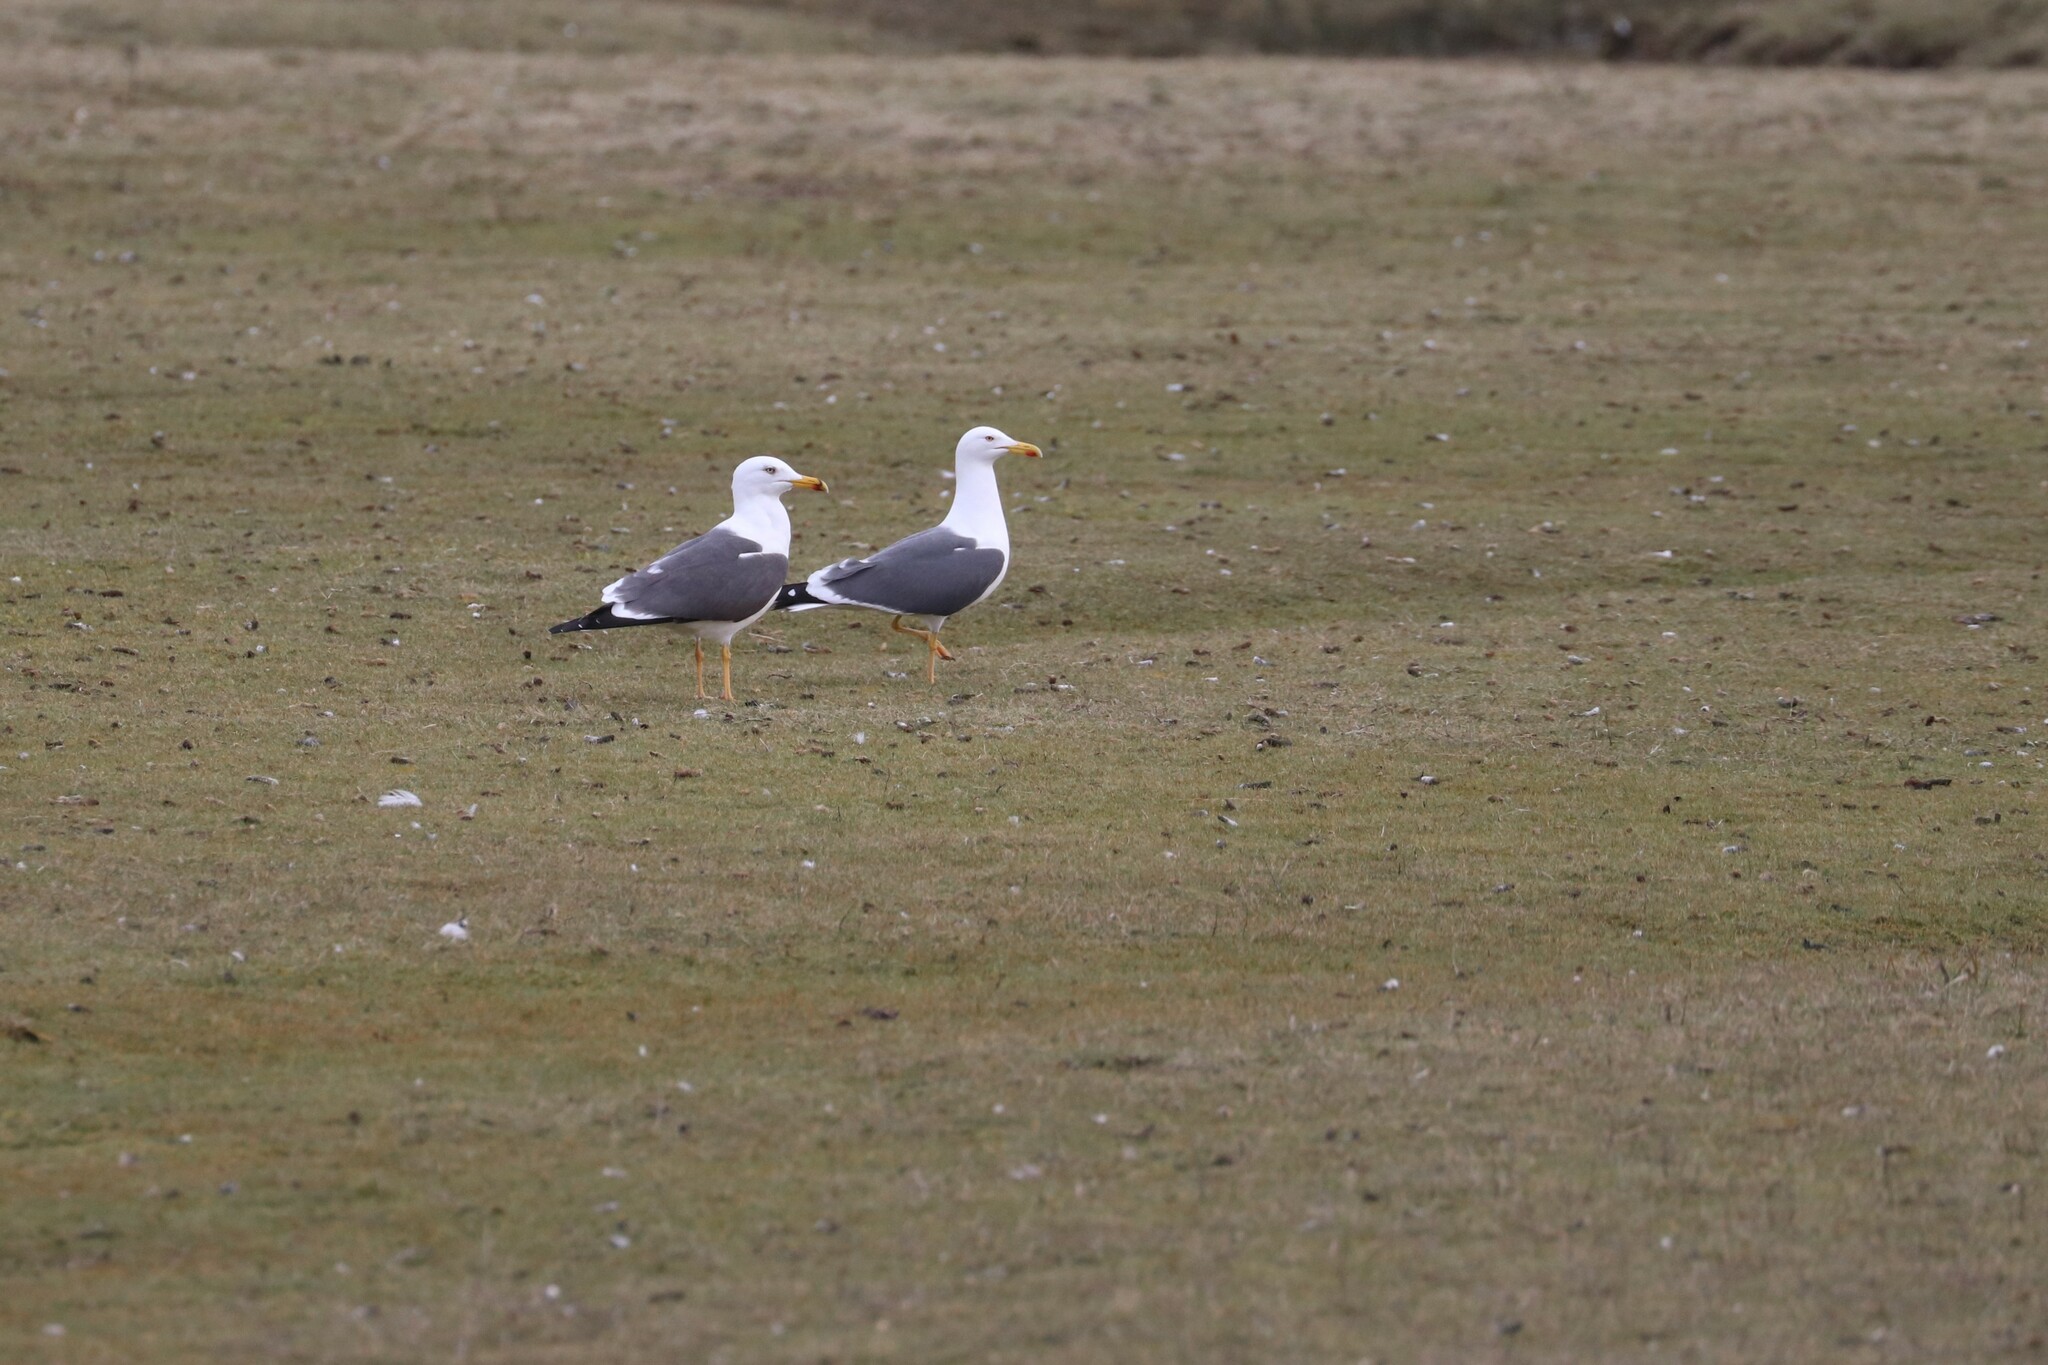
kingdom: Animalia
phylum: Chordata
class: Aves
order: Charadriiformes
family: Laridae
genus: Larus
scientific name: Larus fuscus
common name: Lesser black-backed gull
